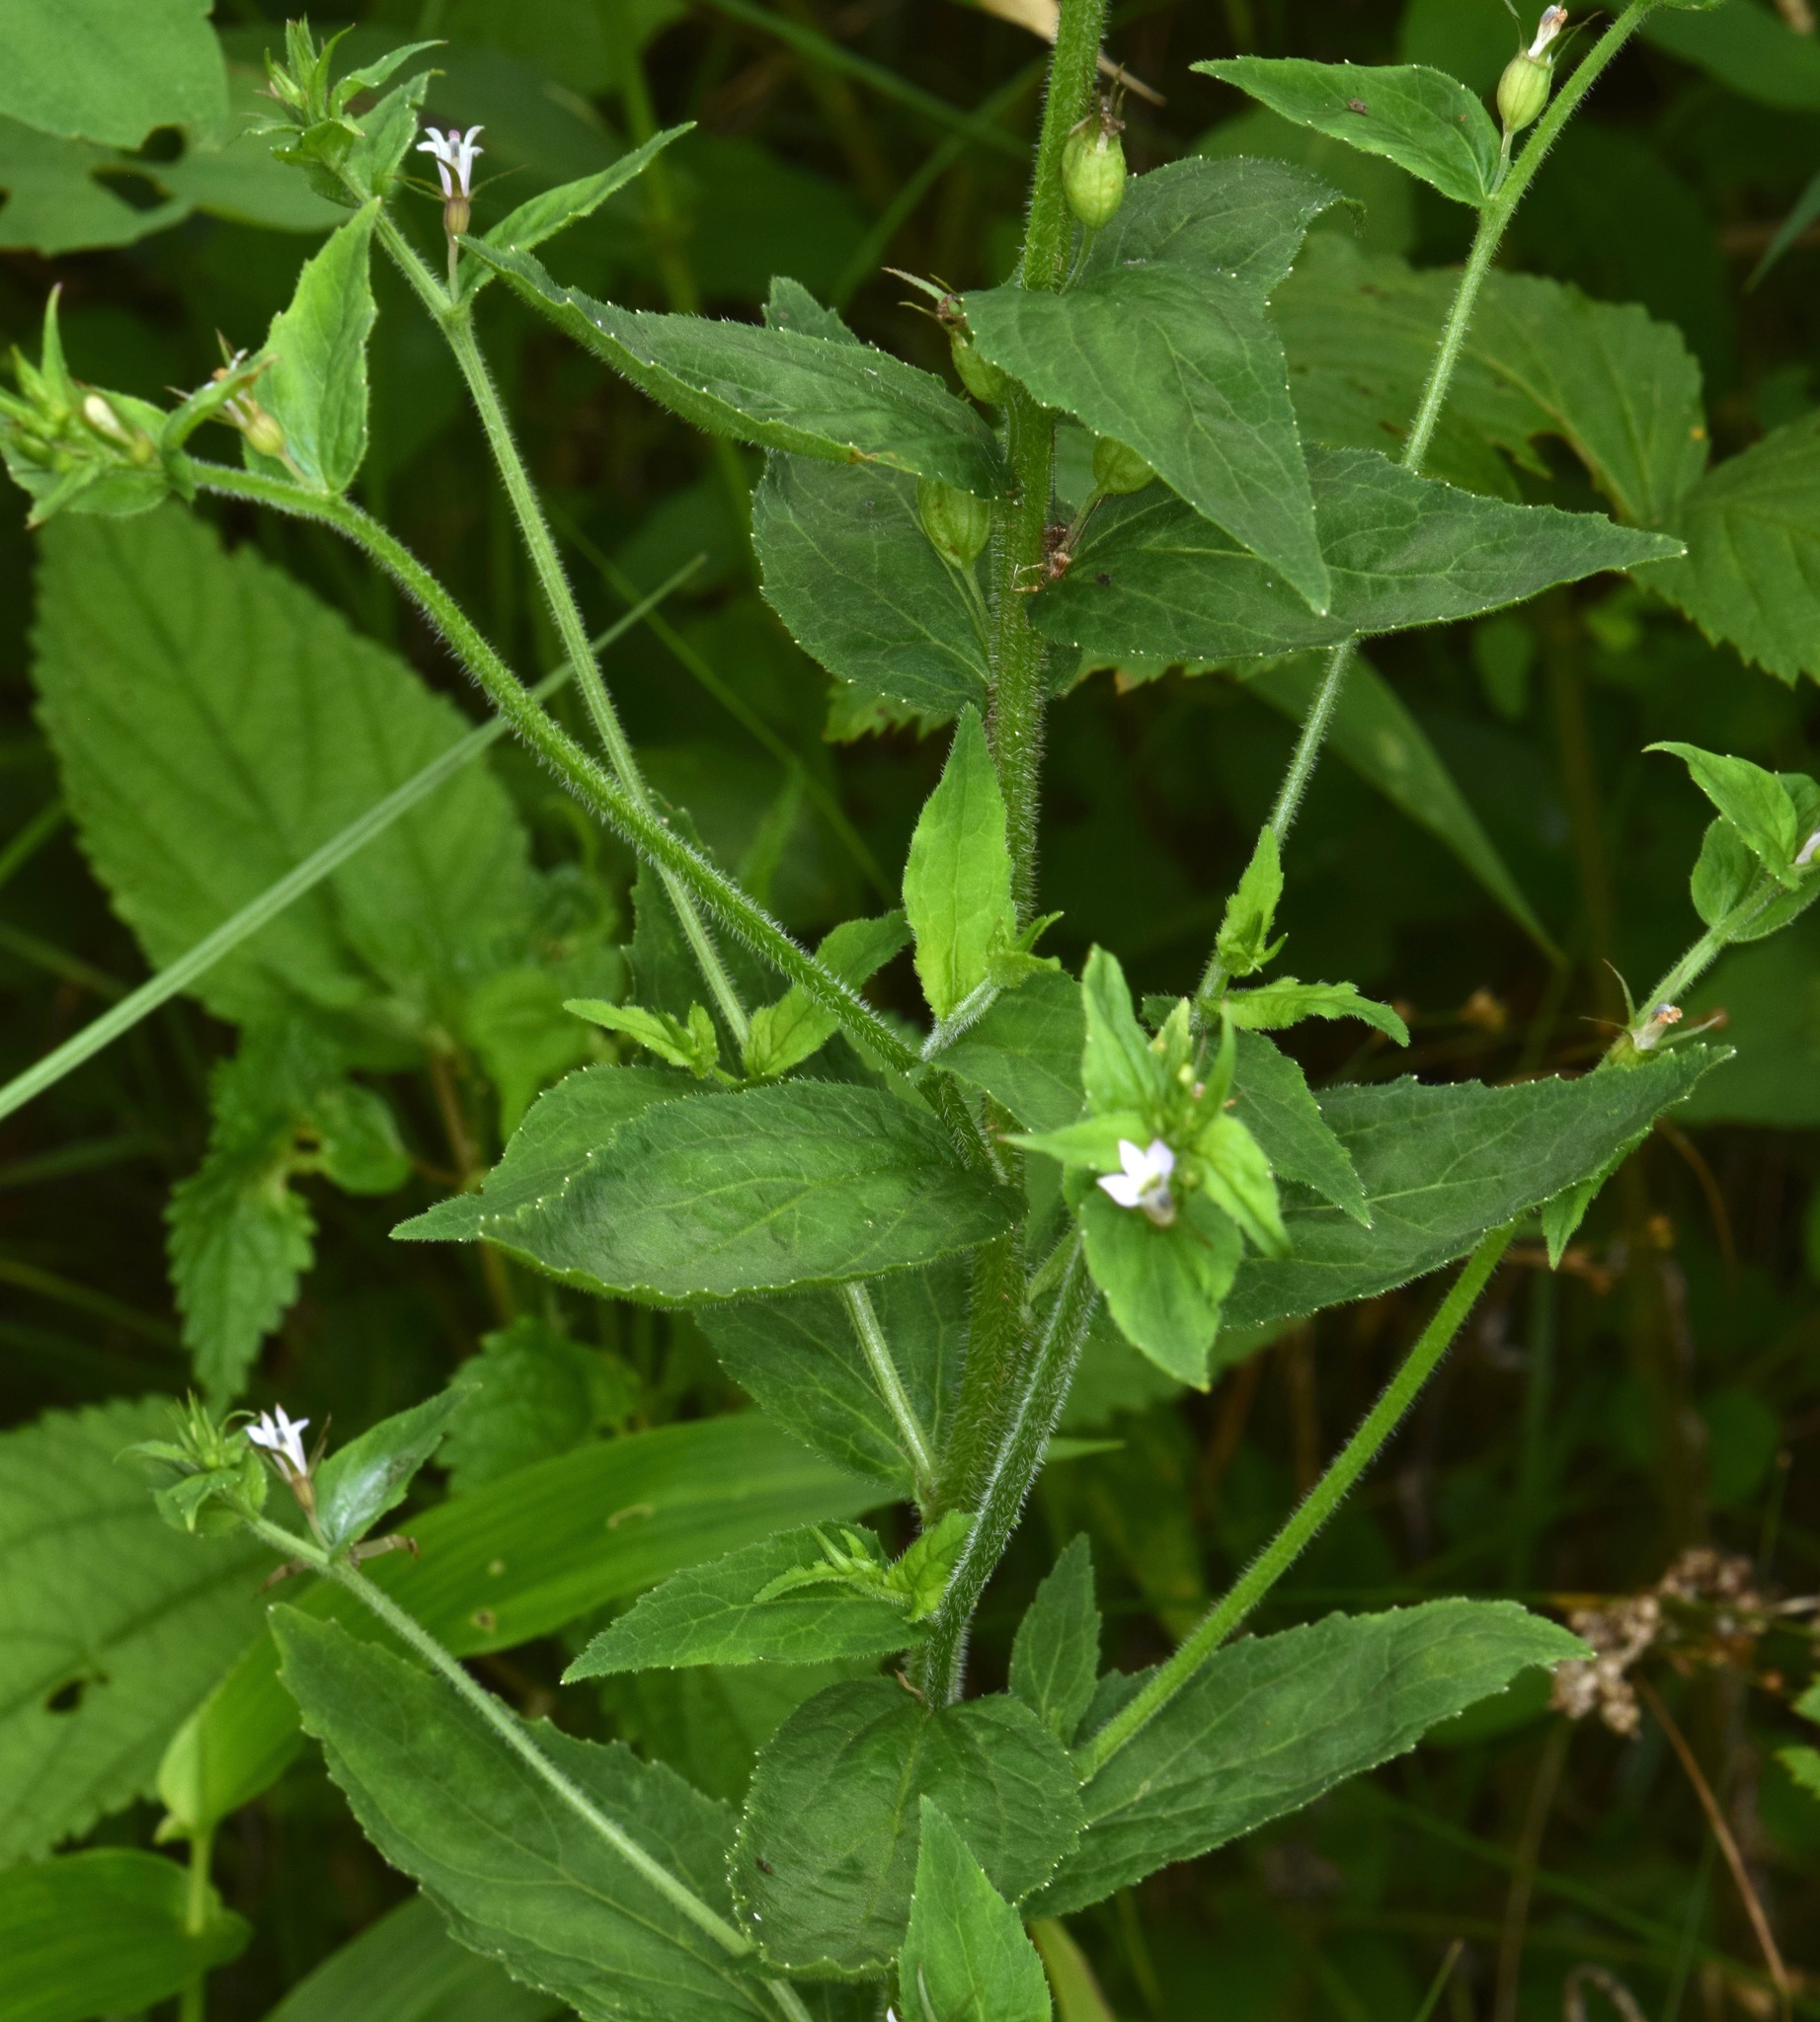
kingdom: Plantae
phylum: Tracheophyta
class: Magnoliopsida
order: Asterales
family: Campanulaceae
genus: Lobelia
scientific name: Lobelia inflata
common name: Indian tobacco
